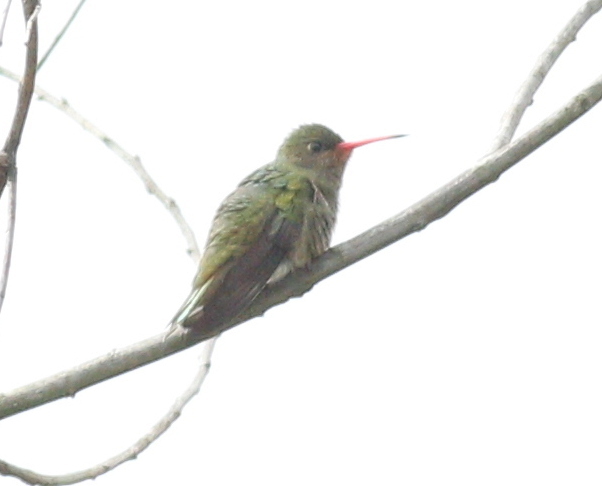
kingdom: Animalia
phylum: Chordata
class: Aves
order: Apodiformes
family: Trochilidae
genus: Hylocharis
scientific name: Hylocharis chrysura
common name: Gilded sapphire
